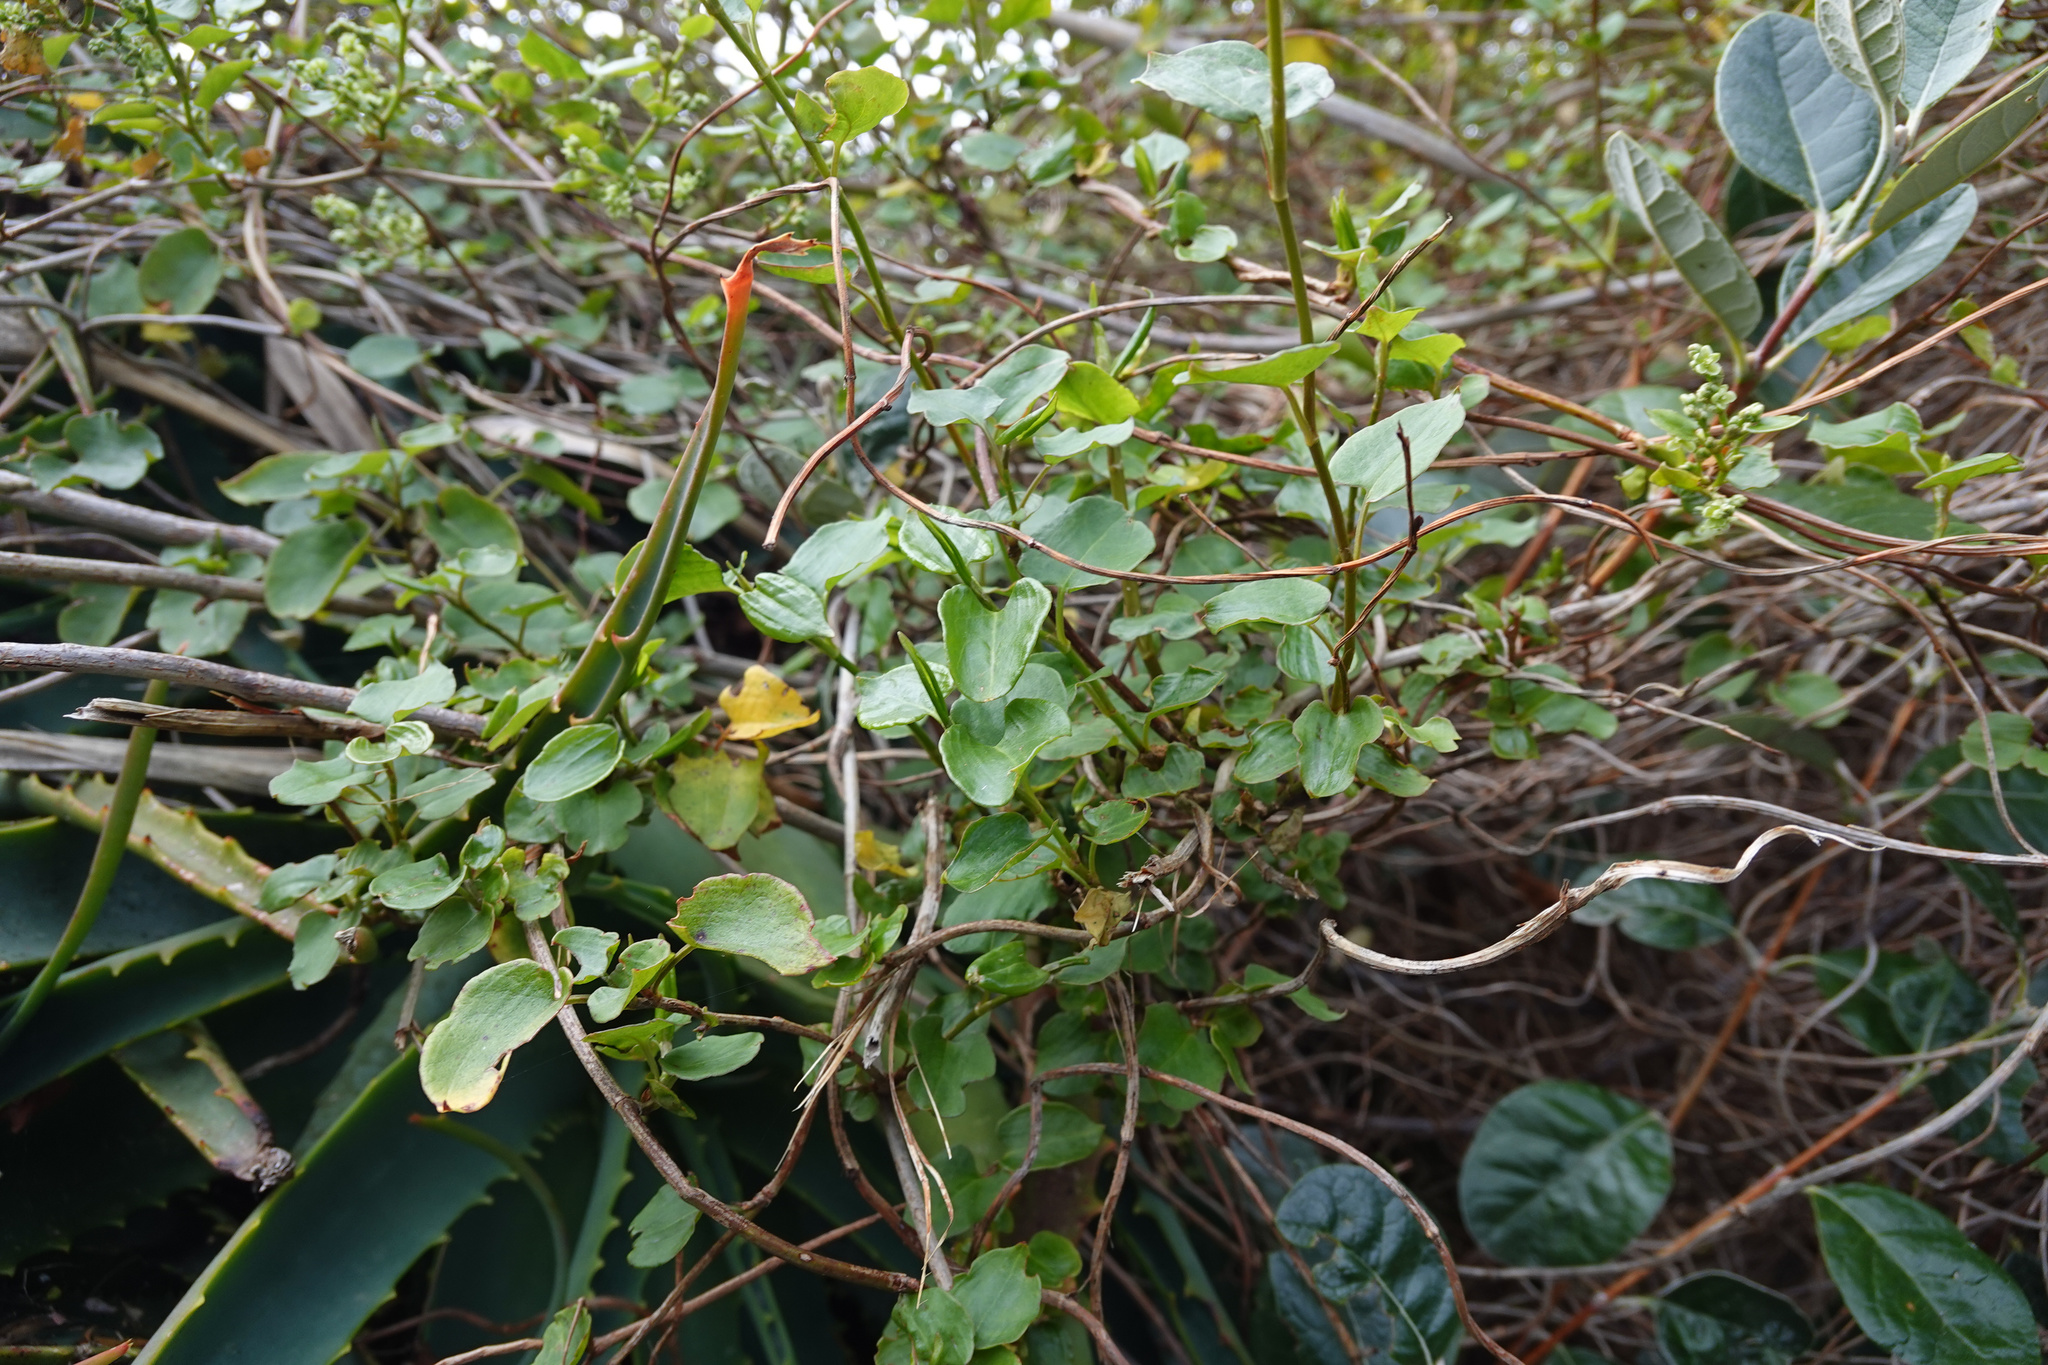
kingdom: Plantae
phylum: Tracheophyta
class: Magnoliopsida
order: Caryophyllales
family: Polygonaceae
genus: Muehlenbeckia
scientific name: Muehlenbeckia australis
